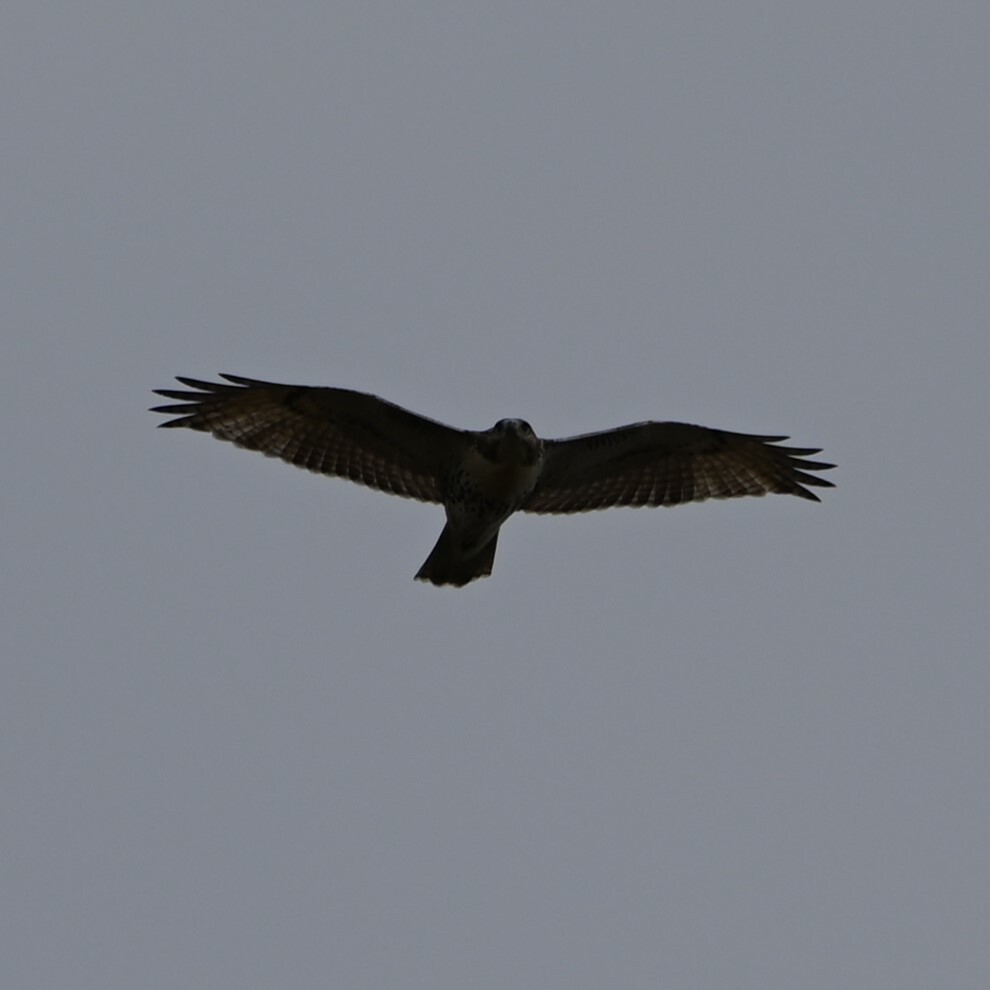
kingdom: Animalia
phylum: Chordata
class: Aves
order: Accipitriformes
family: Accipitridae
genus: Buteo
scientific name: Buteo jamaicensis
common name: Red-tailed hawk
